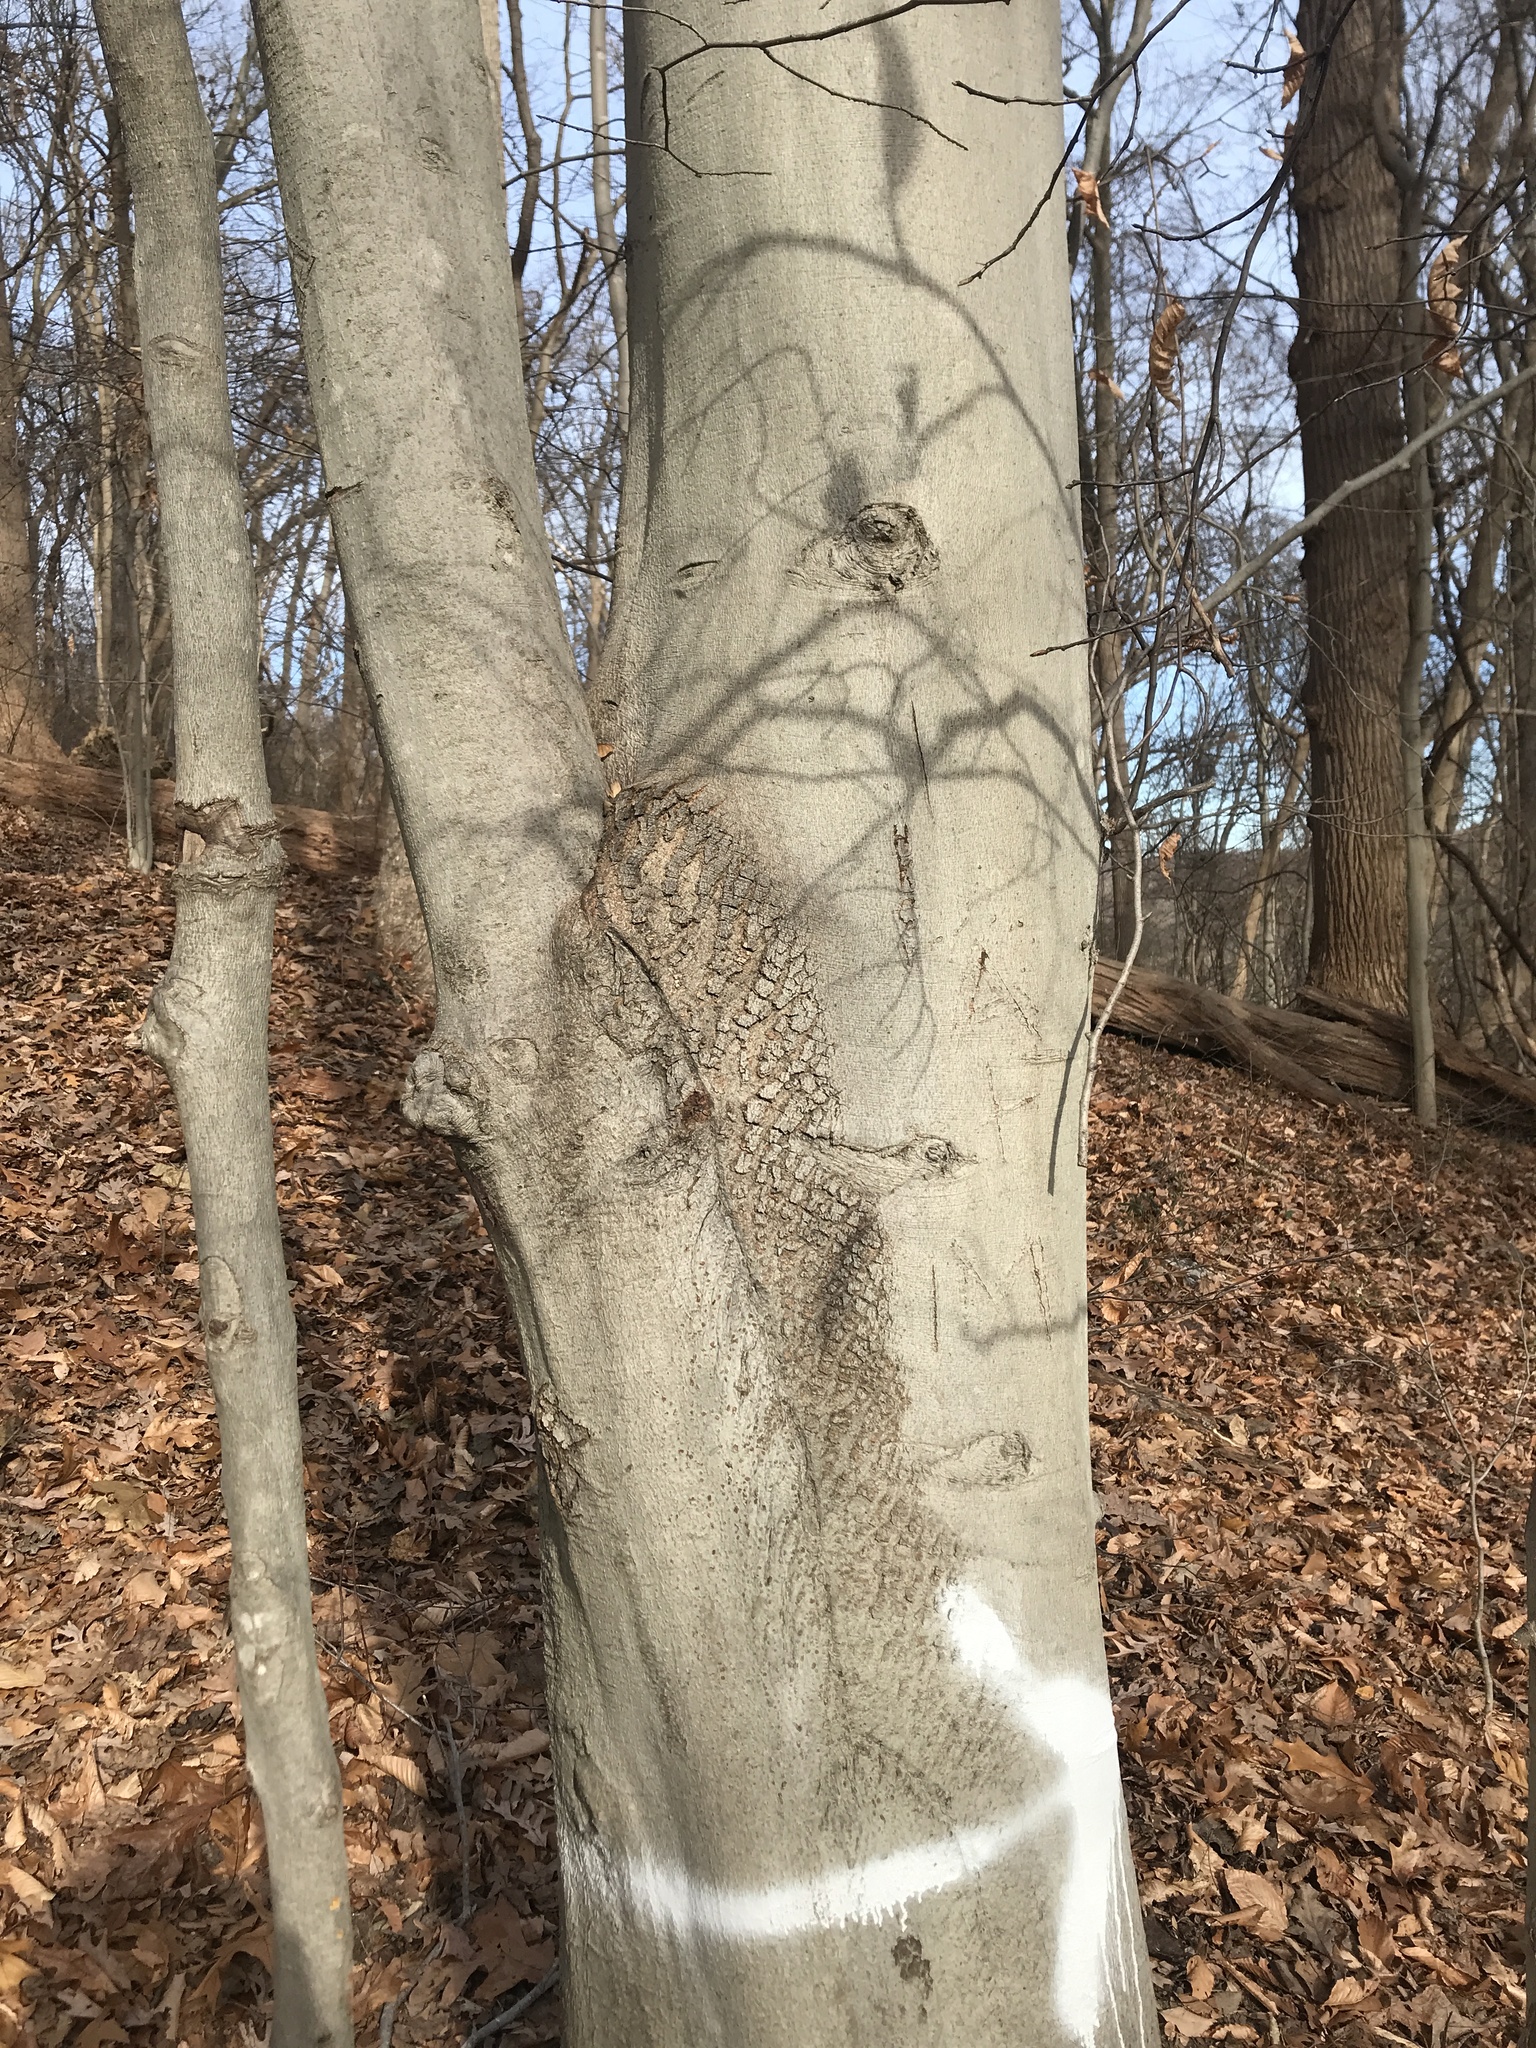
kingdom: Plantae
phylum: Tracheophyta
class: Magnoliopsida
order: Fagales
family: Fagaceae
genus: Fagus
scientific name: Fagus grandifolia
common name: American beech
